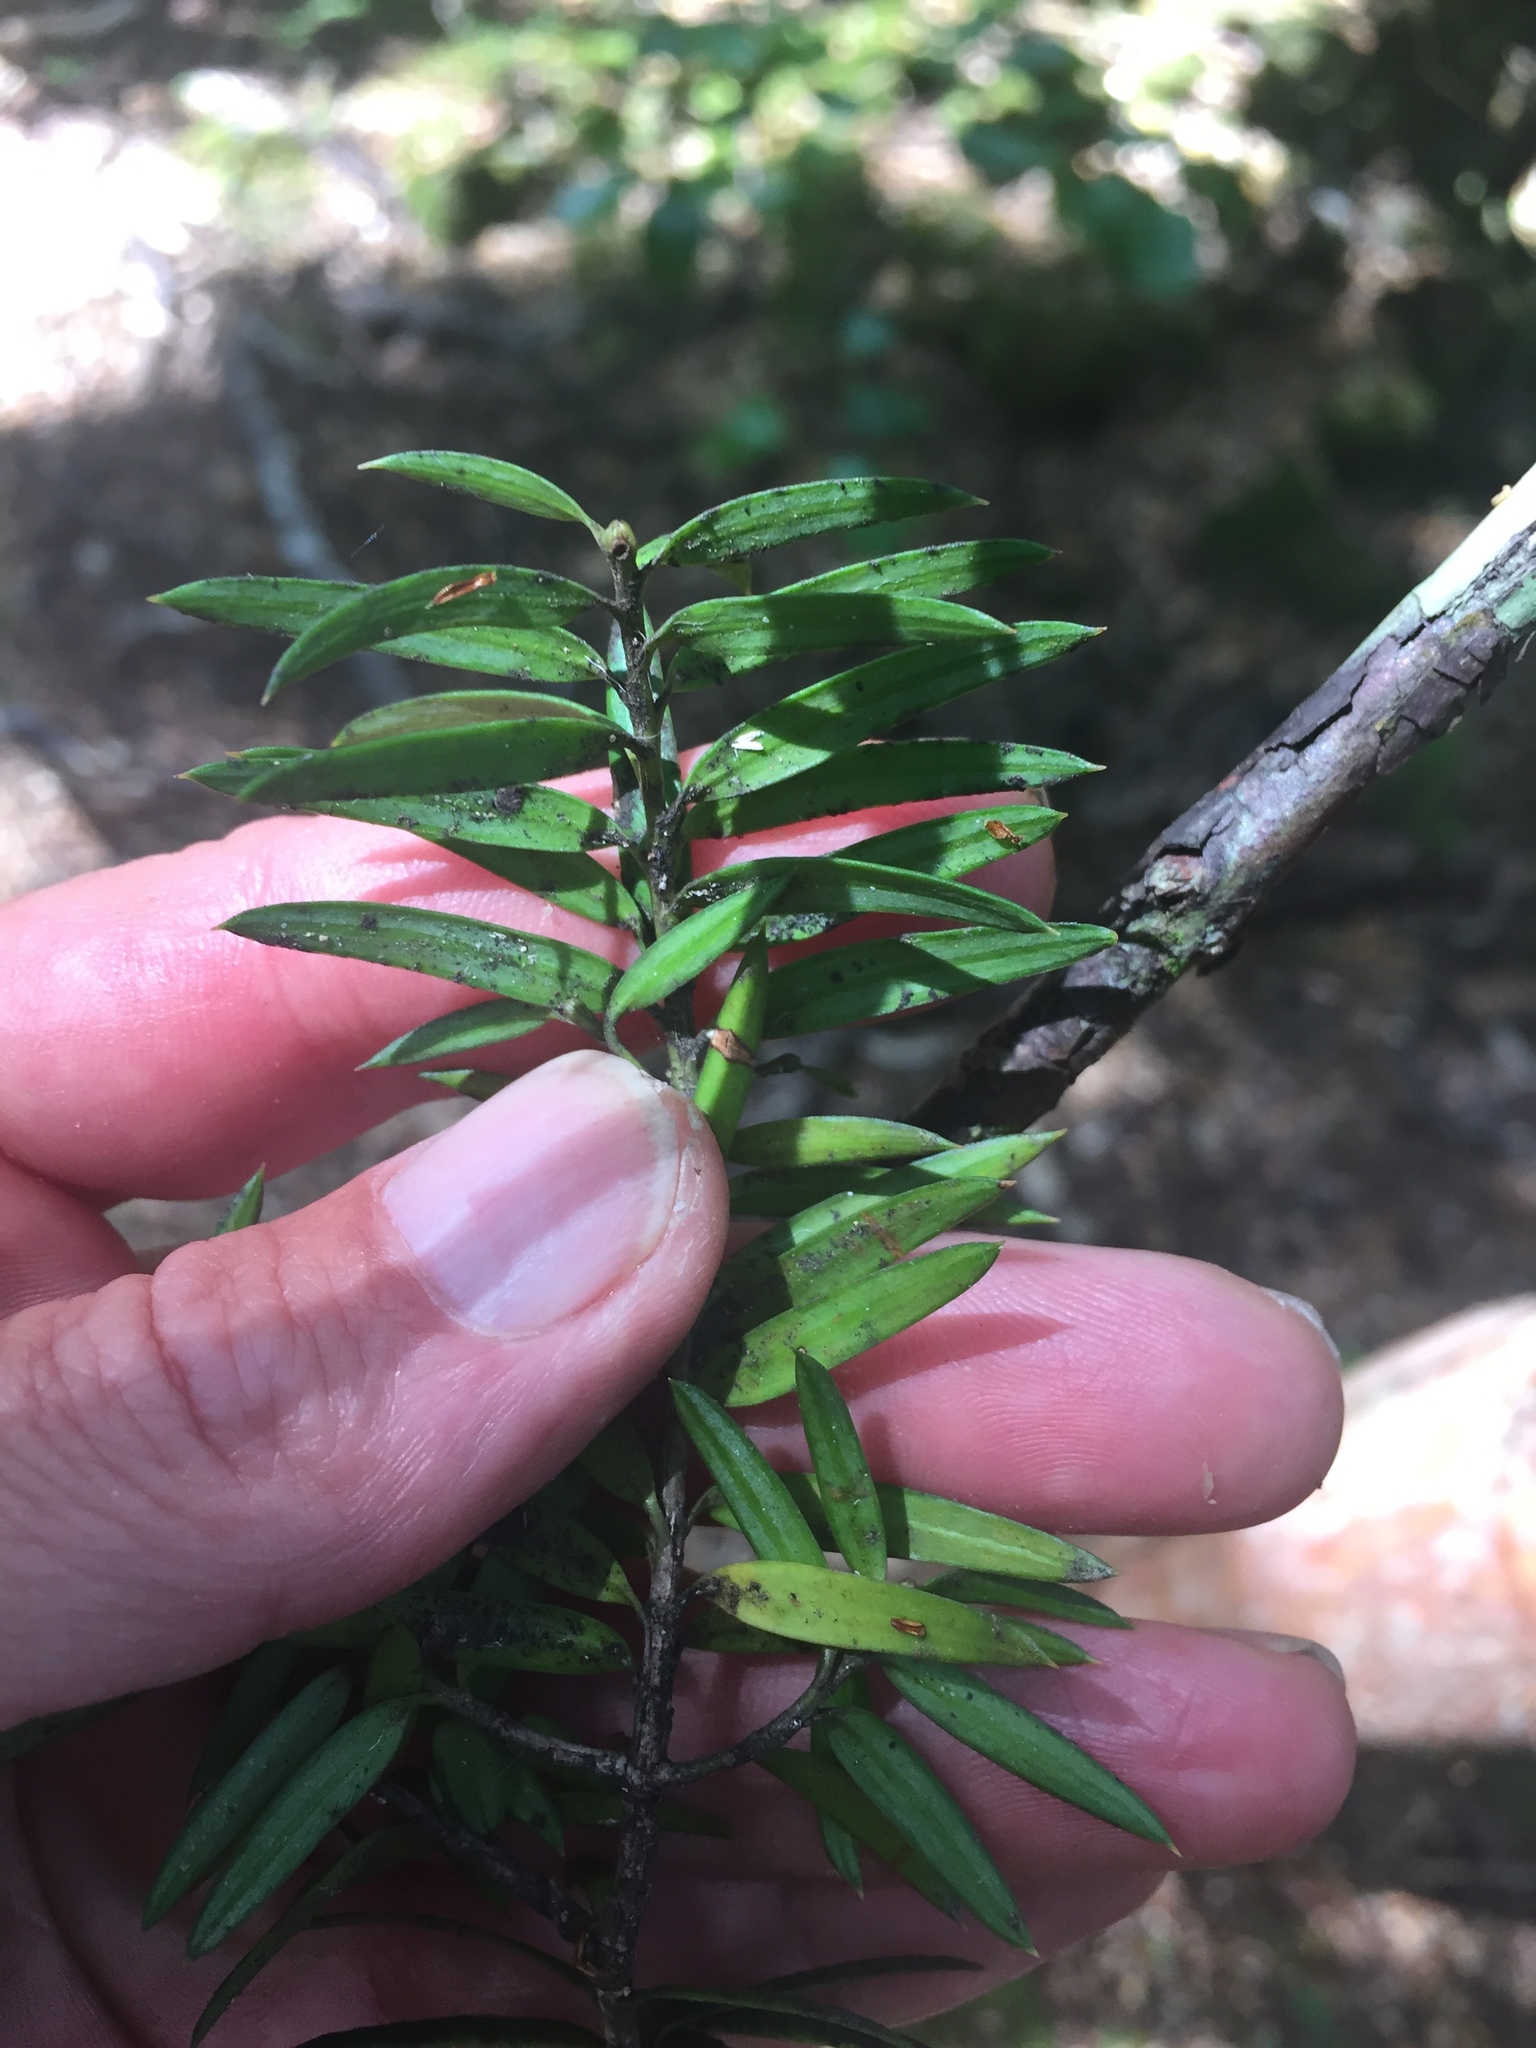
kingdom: Plantae
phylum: Tracheophyta
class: Pinopsida
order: Pinales
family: Podocarpaceae
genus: Podocarpus
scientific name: Podocarpus laetus
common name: Hall's totara
